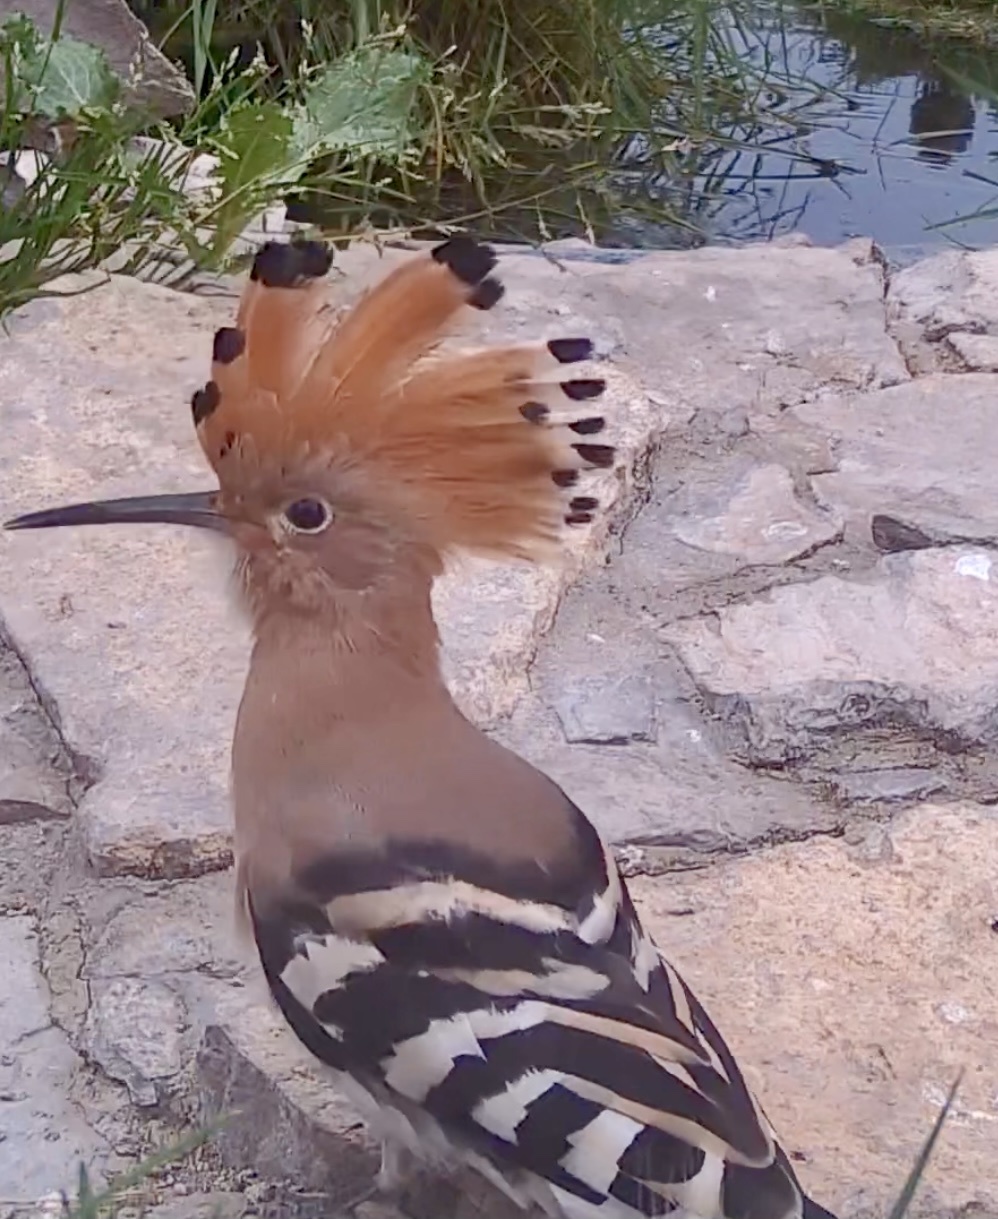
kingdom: Animalia
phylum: Chordata
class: Aves
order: Bucerotiformes
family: Upupidae
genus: Upupa
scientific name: Upupa epops
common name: Eurasian hoopoe
